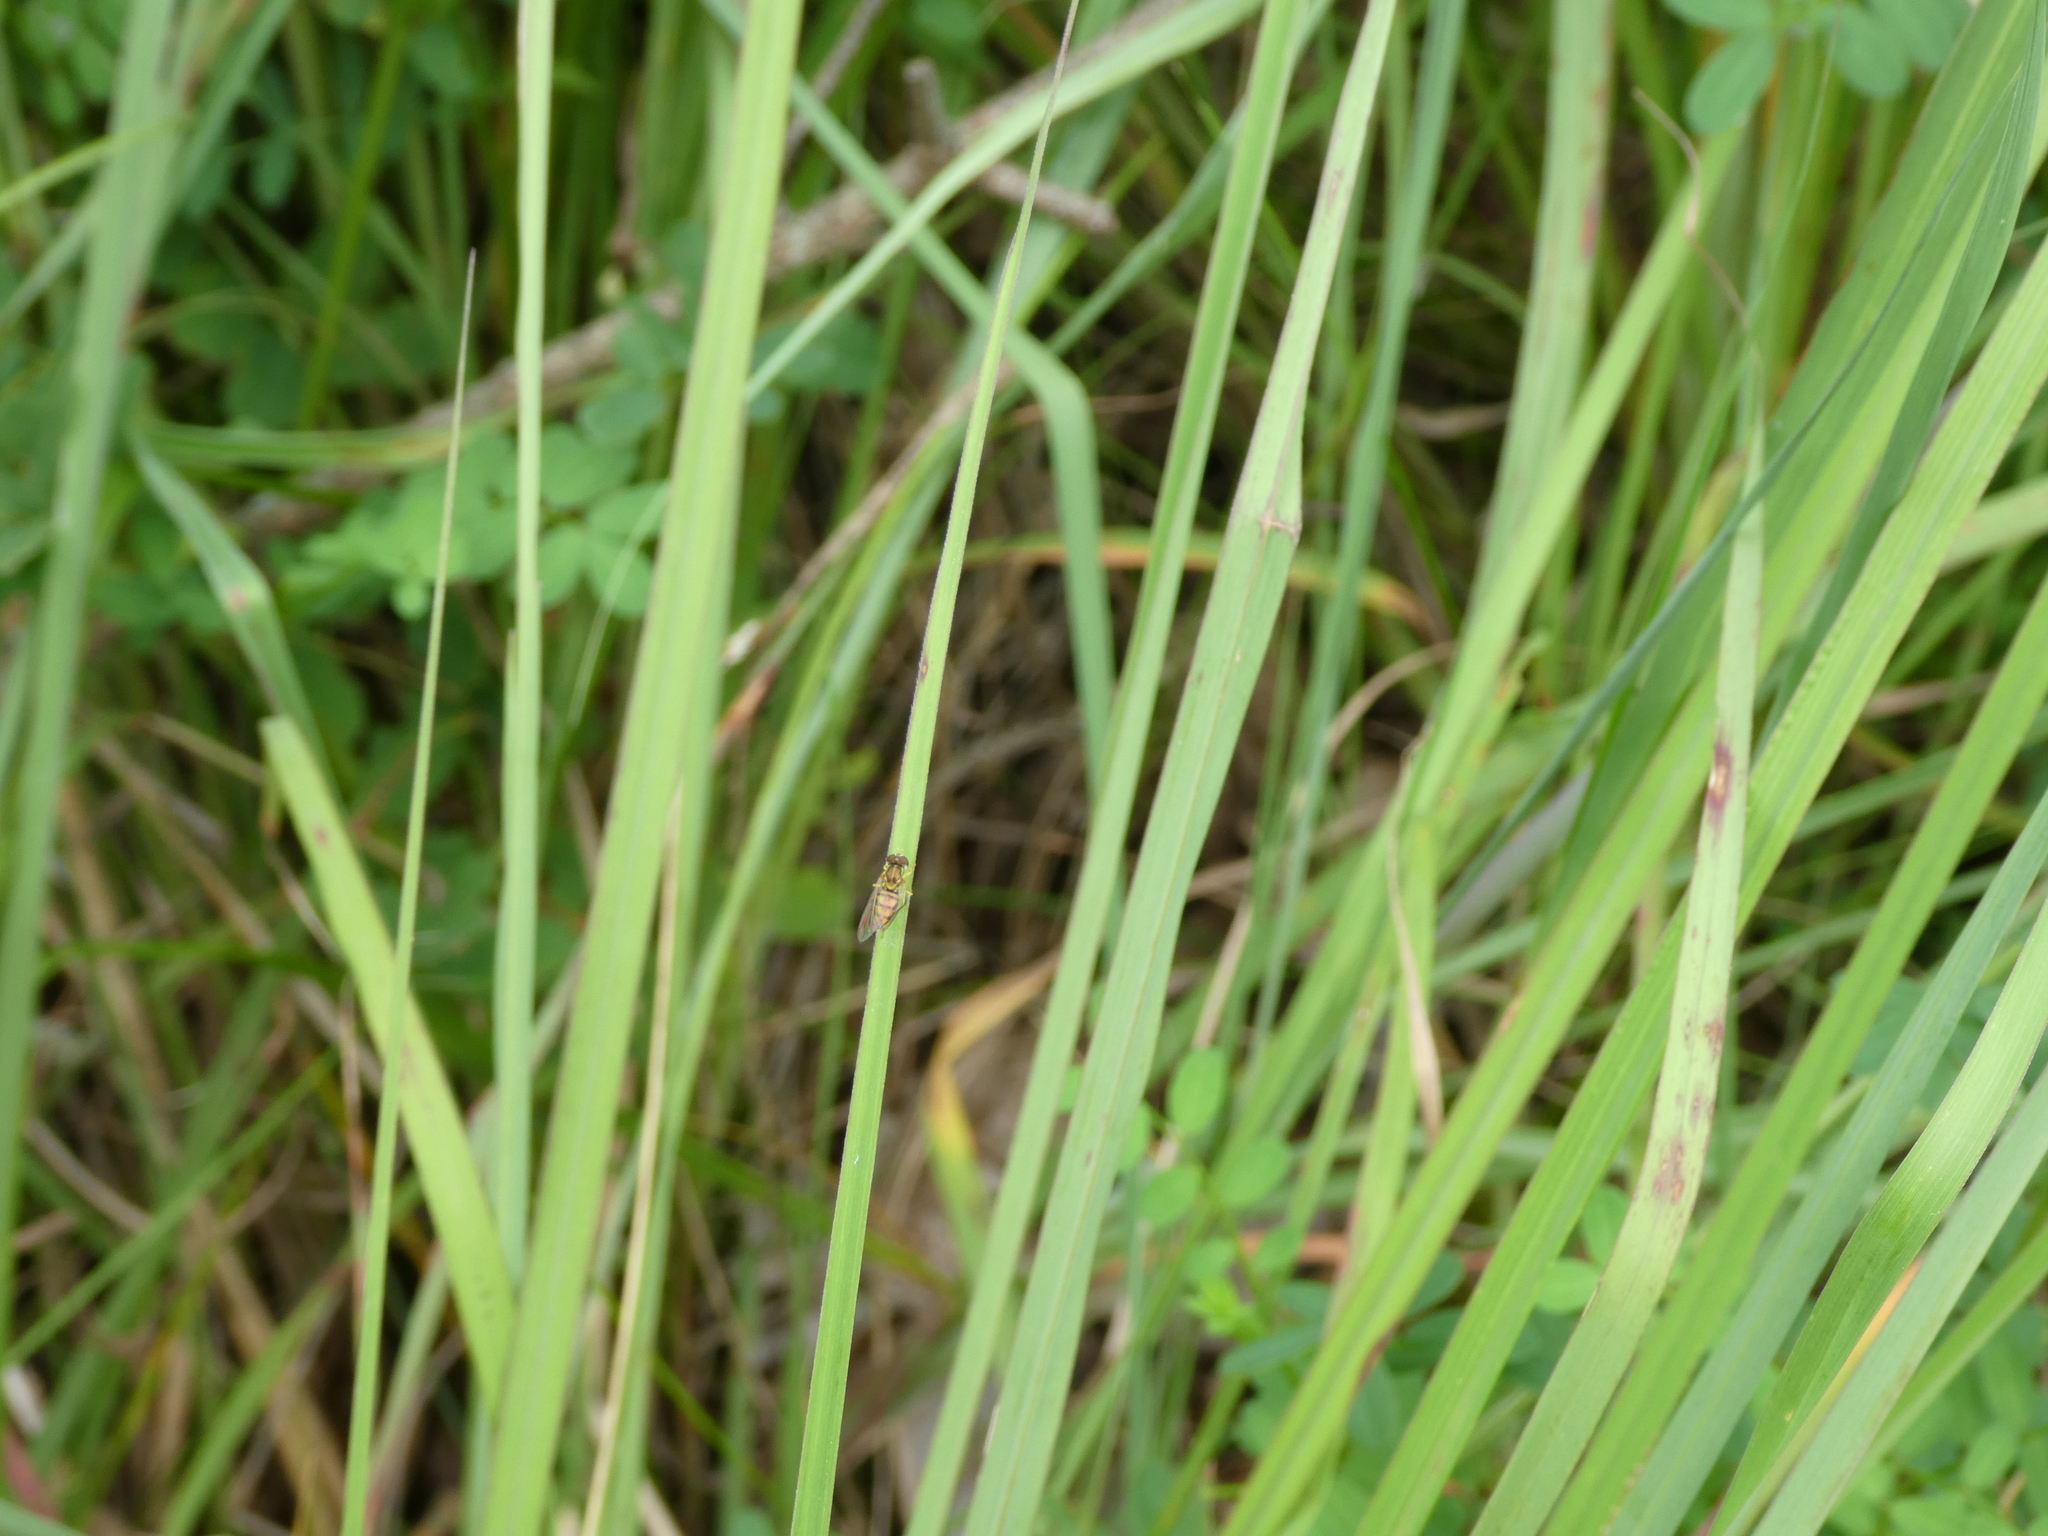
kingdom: Animalia
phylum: Arthropoda
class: Insecta
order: Diptera
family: Syrphidae
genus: Toxomerus
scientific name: Toxomerus marginatus
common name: Syrphid fly
